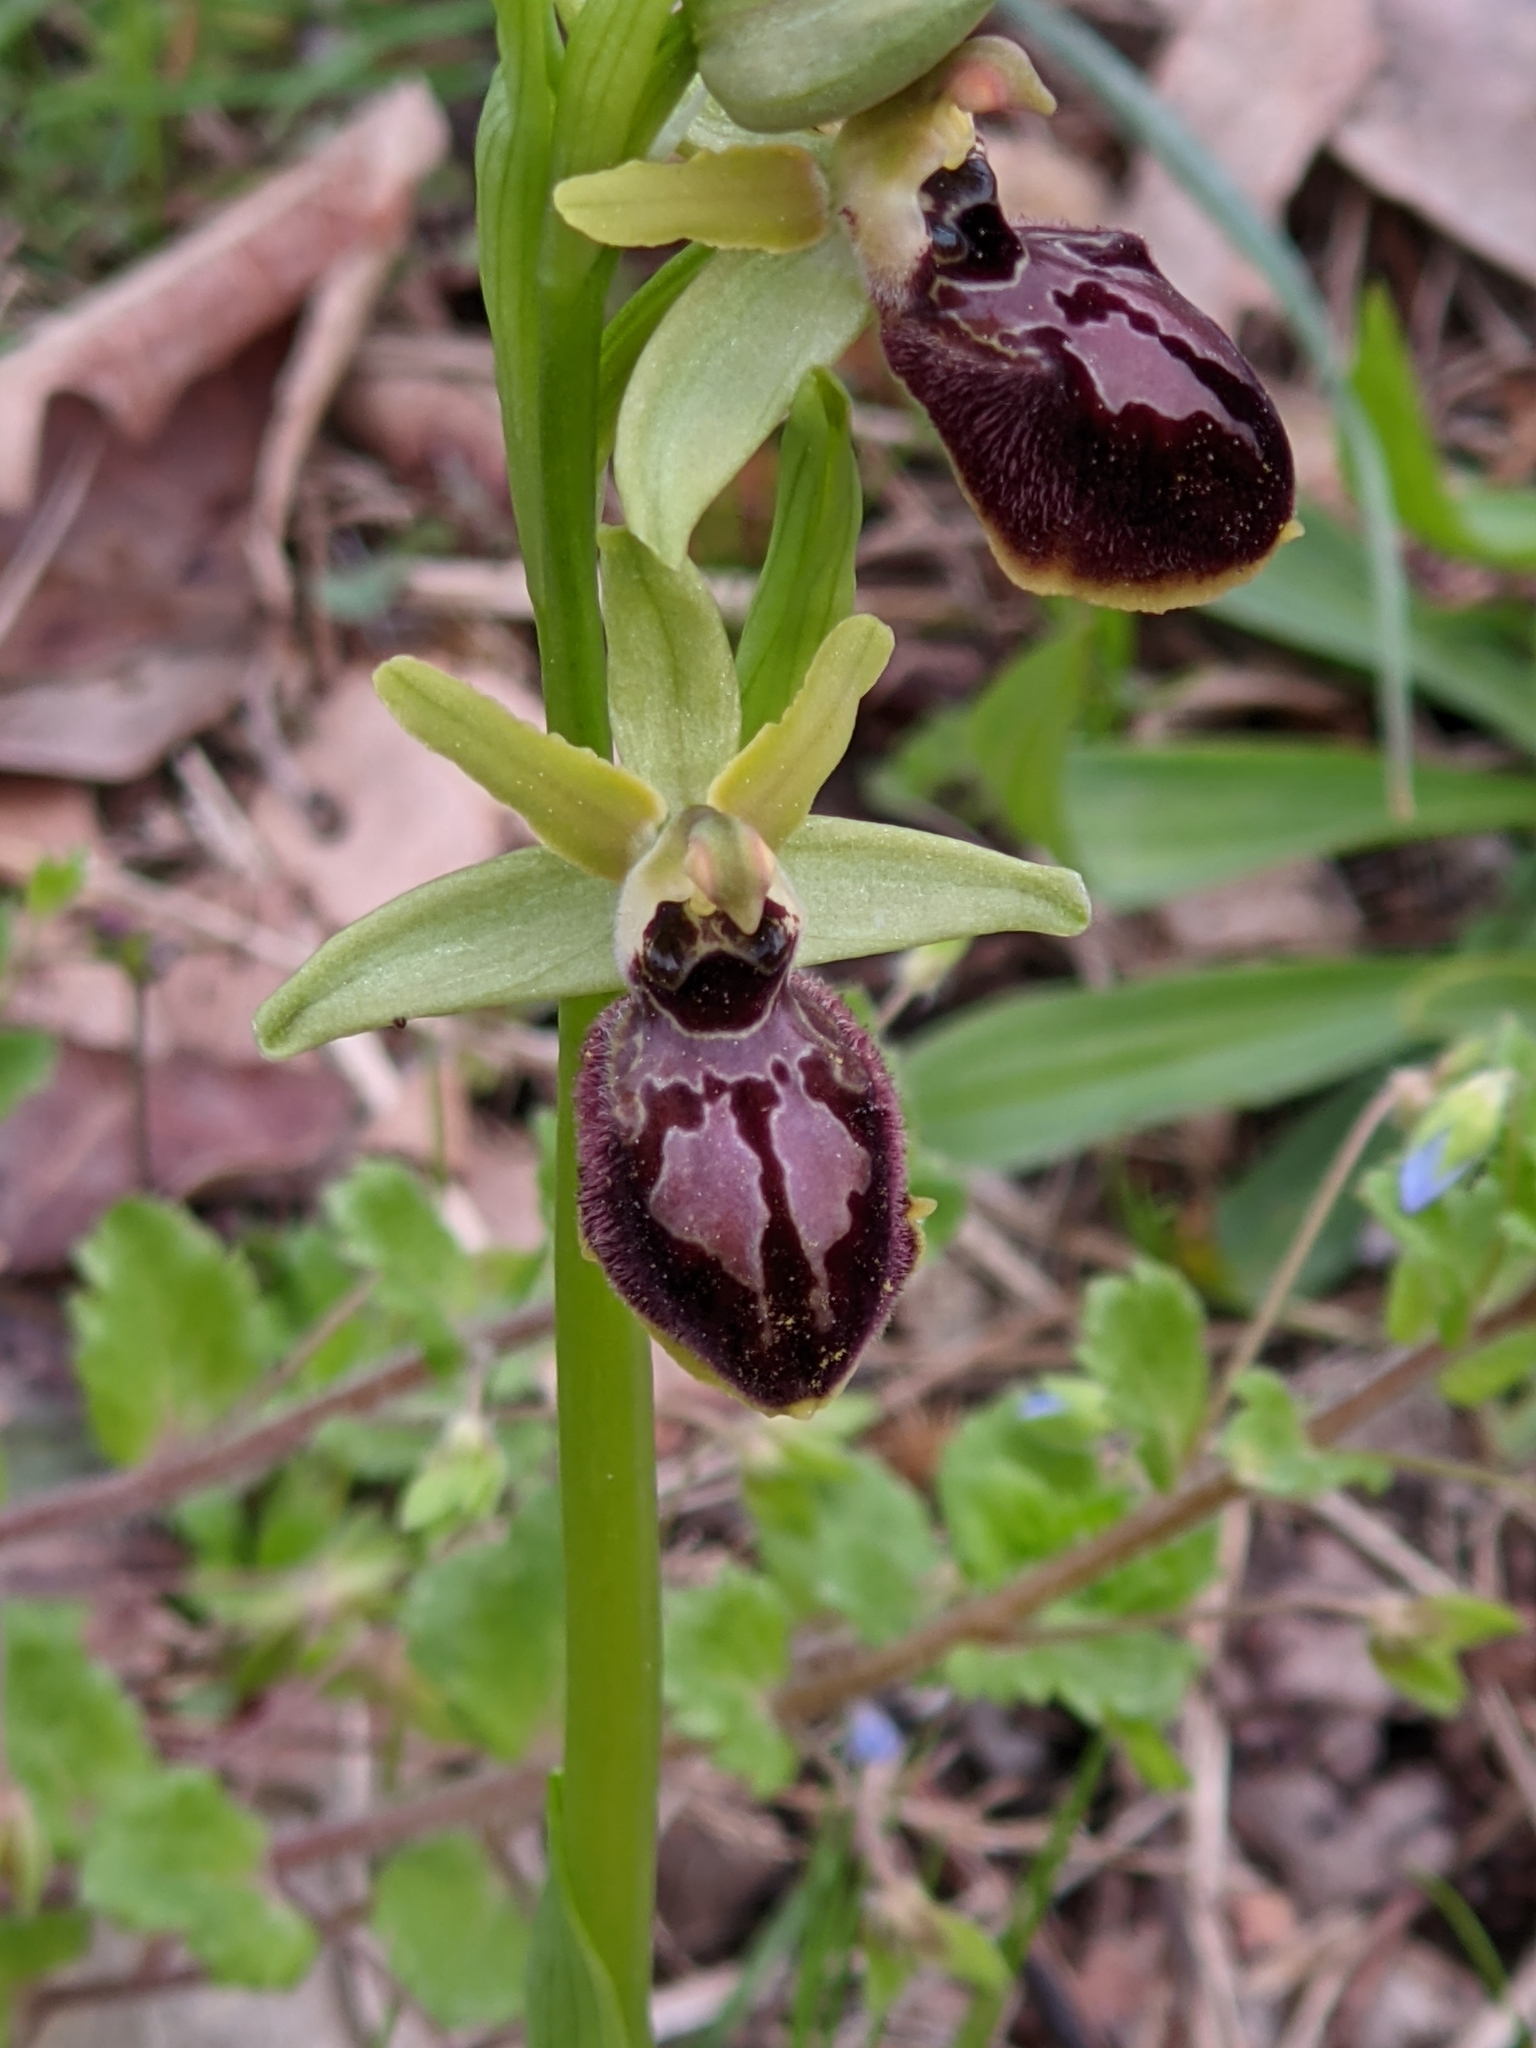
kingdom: Plantae
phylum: Tracheophyta
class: Liliopsida
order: Asparagales
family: Orchidaceae
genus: Ophrys
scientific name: Ophrys arachnitiformis
